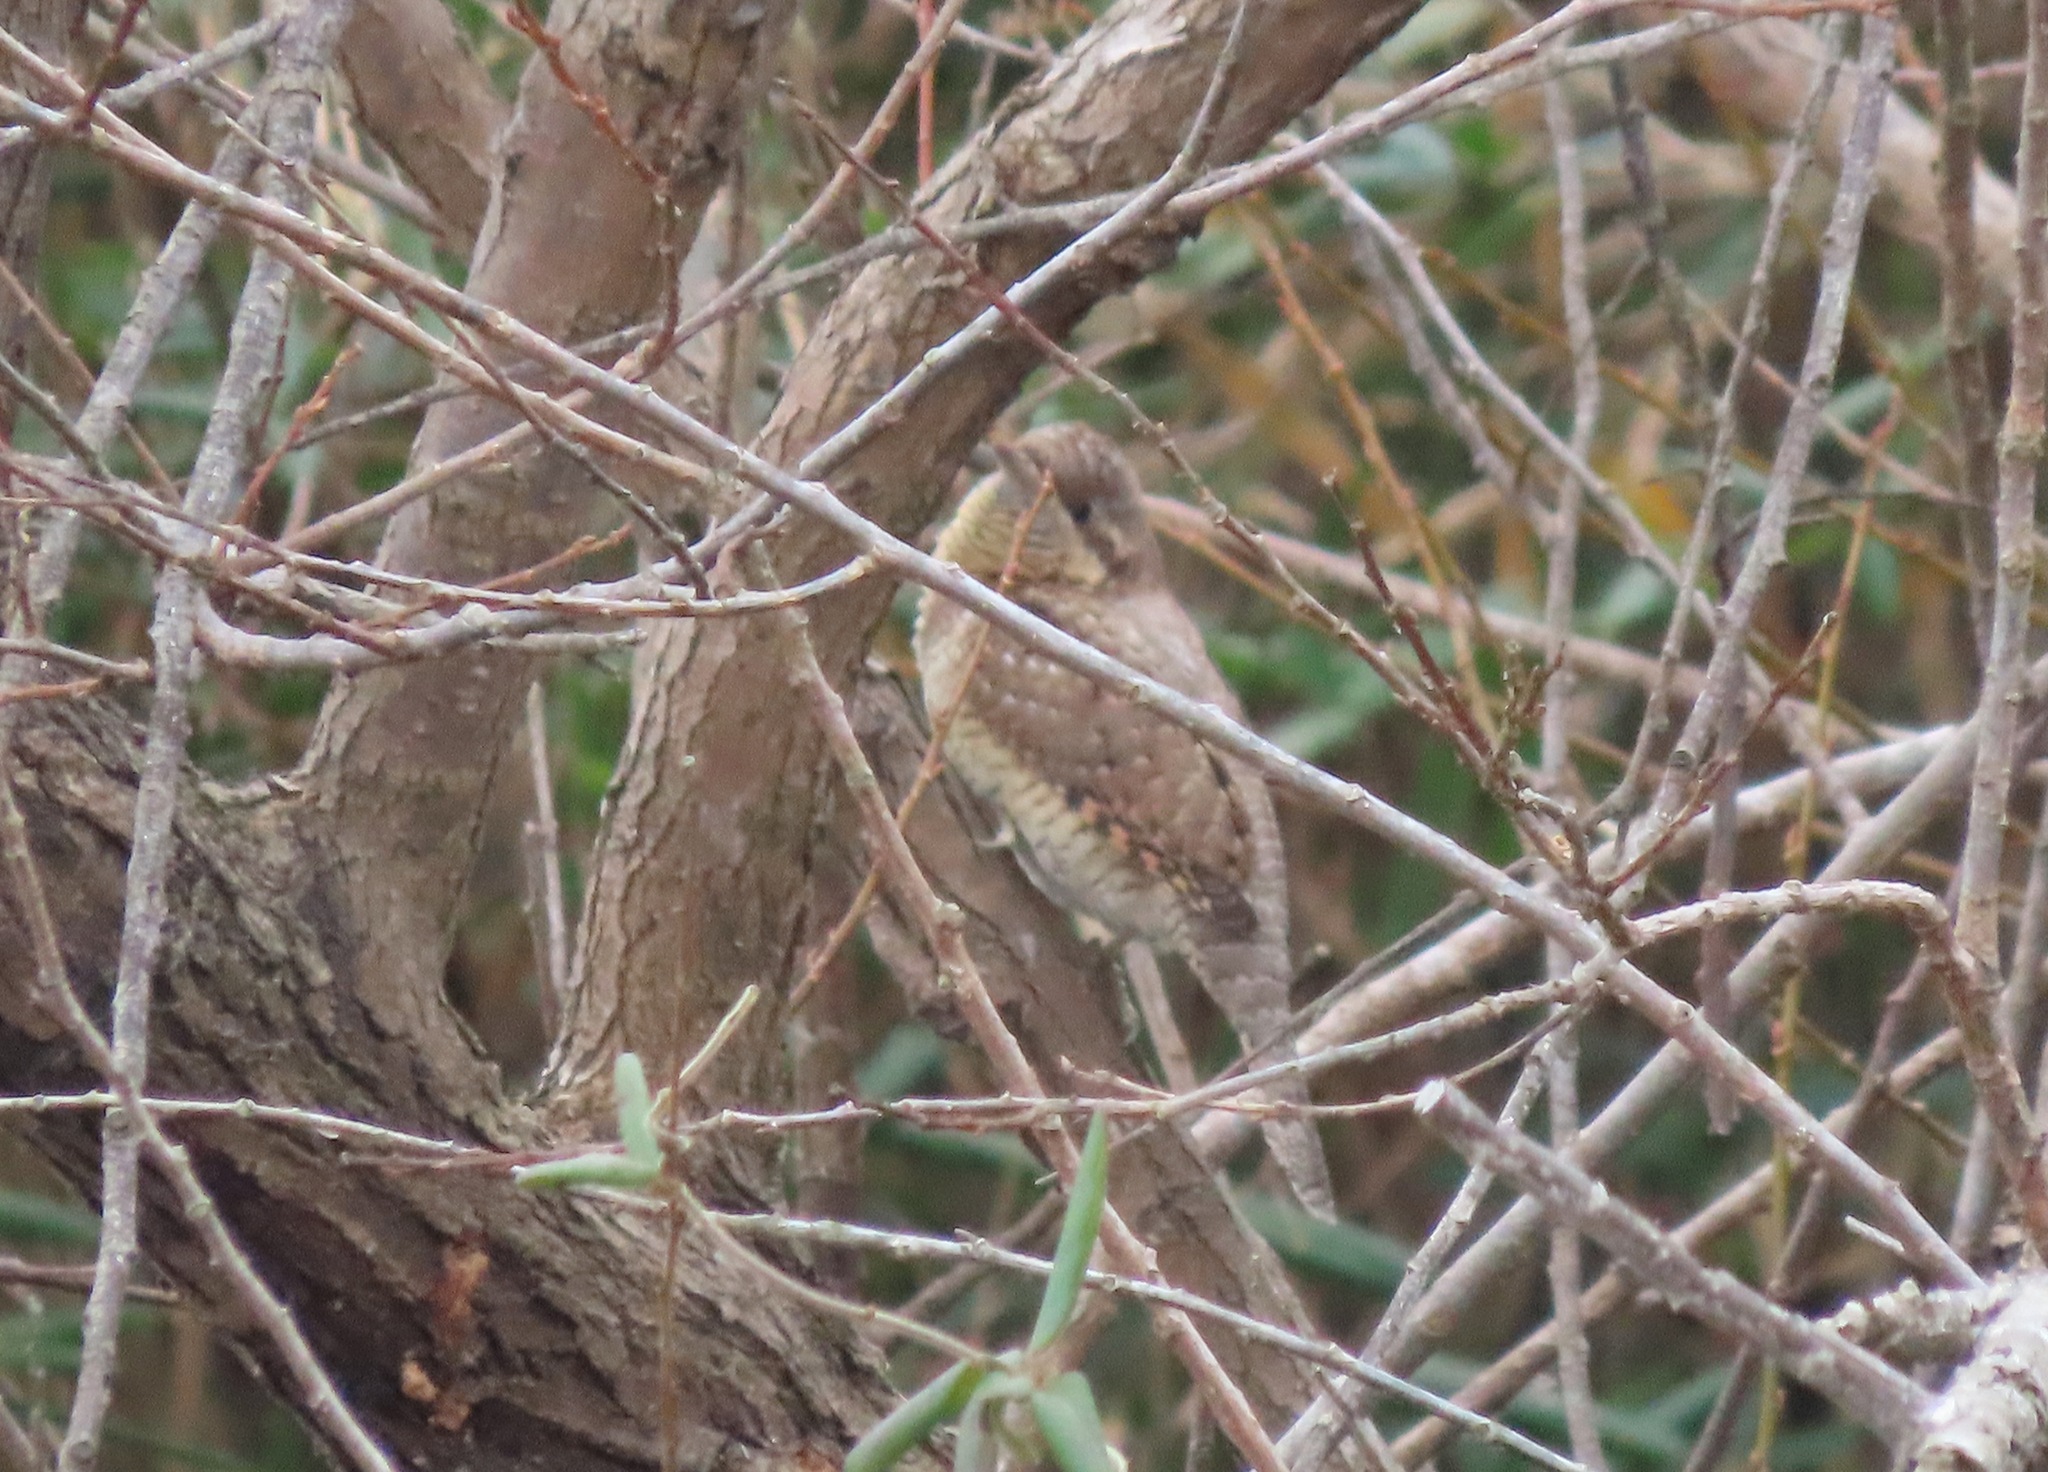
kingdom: Animalia
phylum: Chordata
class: Aves
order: Piciformes
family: Picidae
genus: Jynx
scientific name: Jynx torquilla
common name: Eurasian wryneck
